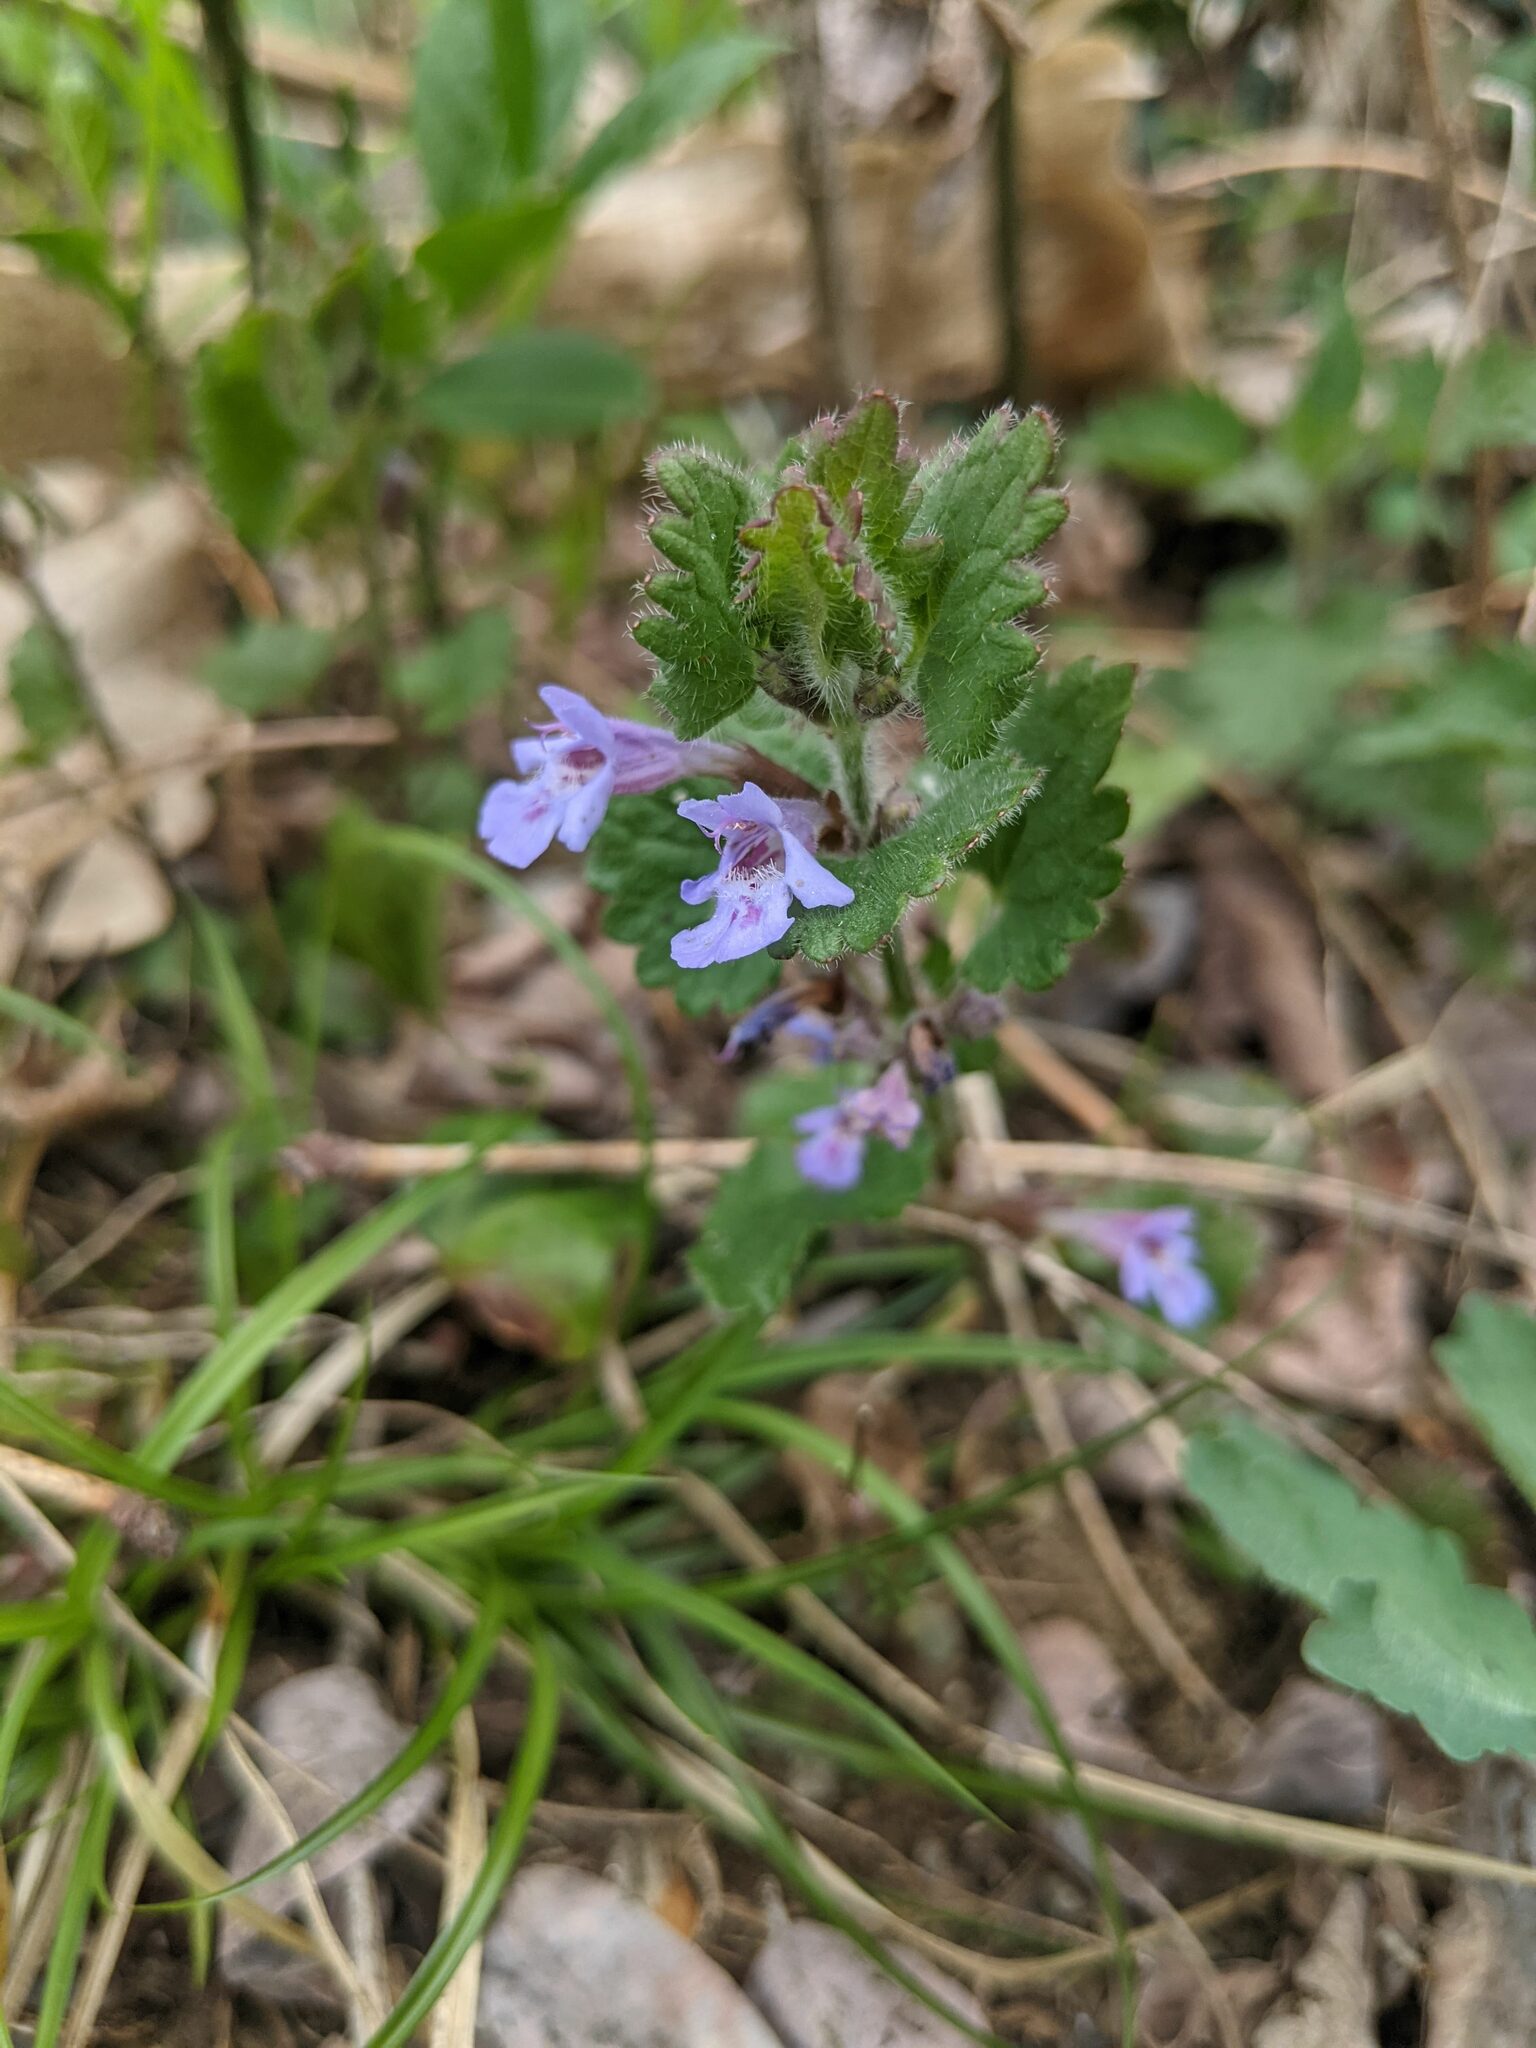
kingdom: Plantae
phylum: Tracheophyta
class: Magnoliopsida
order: Lamiales
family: Lamiaceae
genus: Glechoma
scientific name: Glechoma hederacea
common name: Ground ivy
